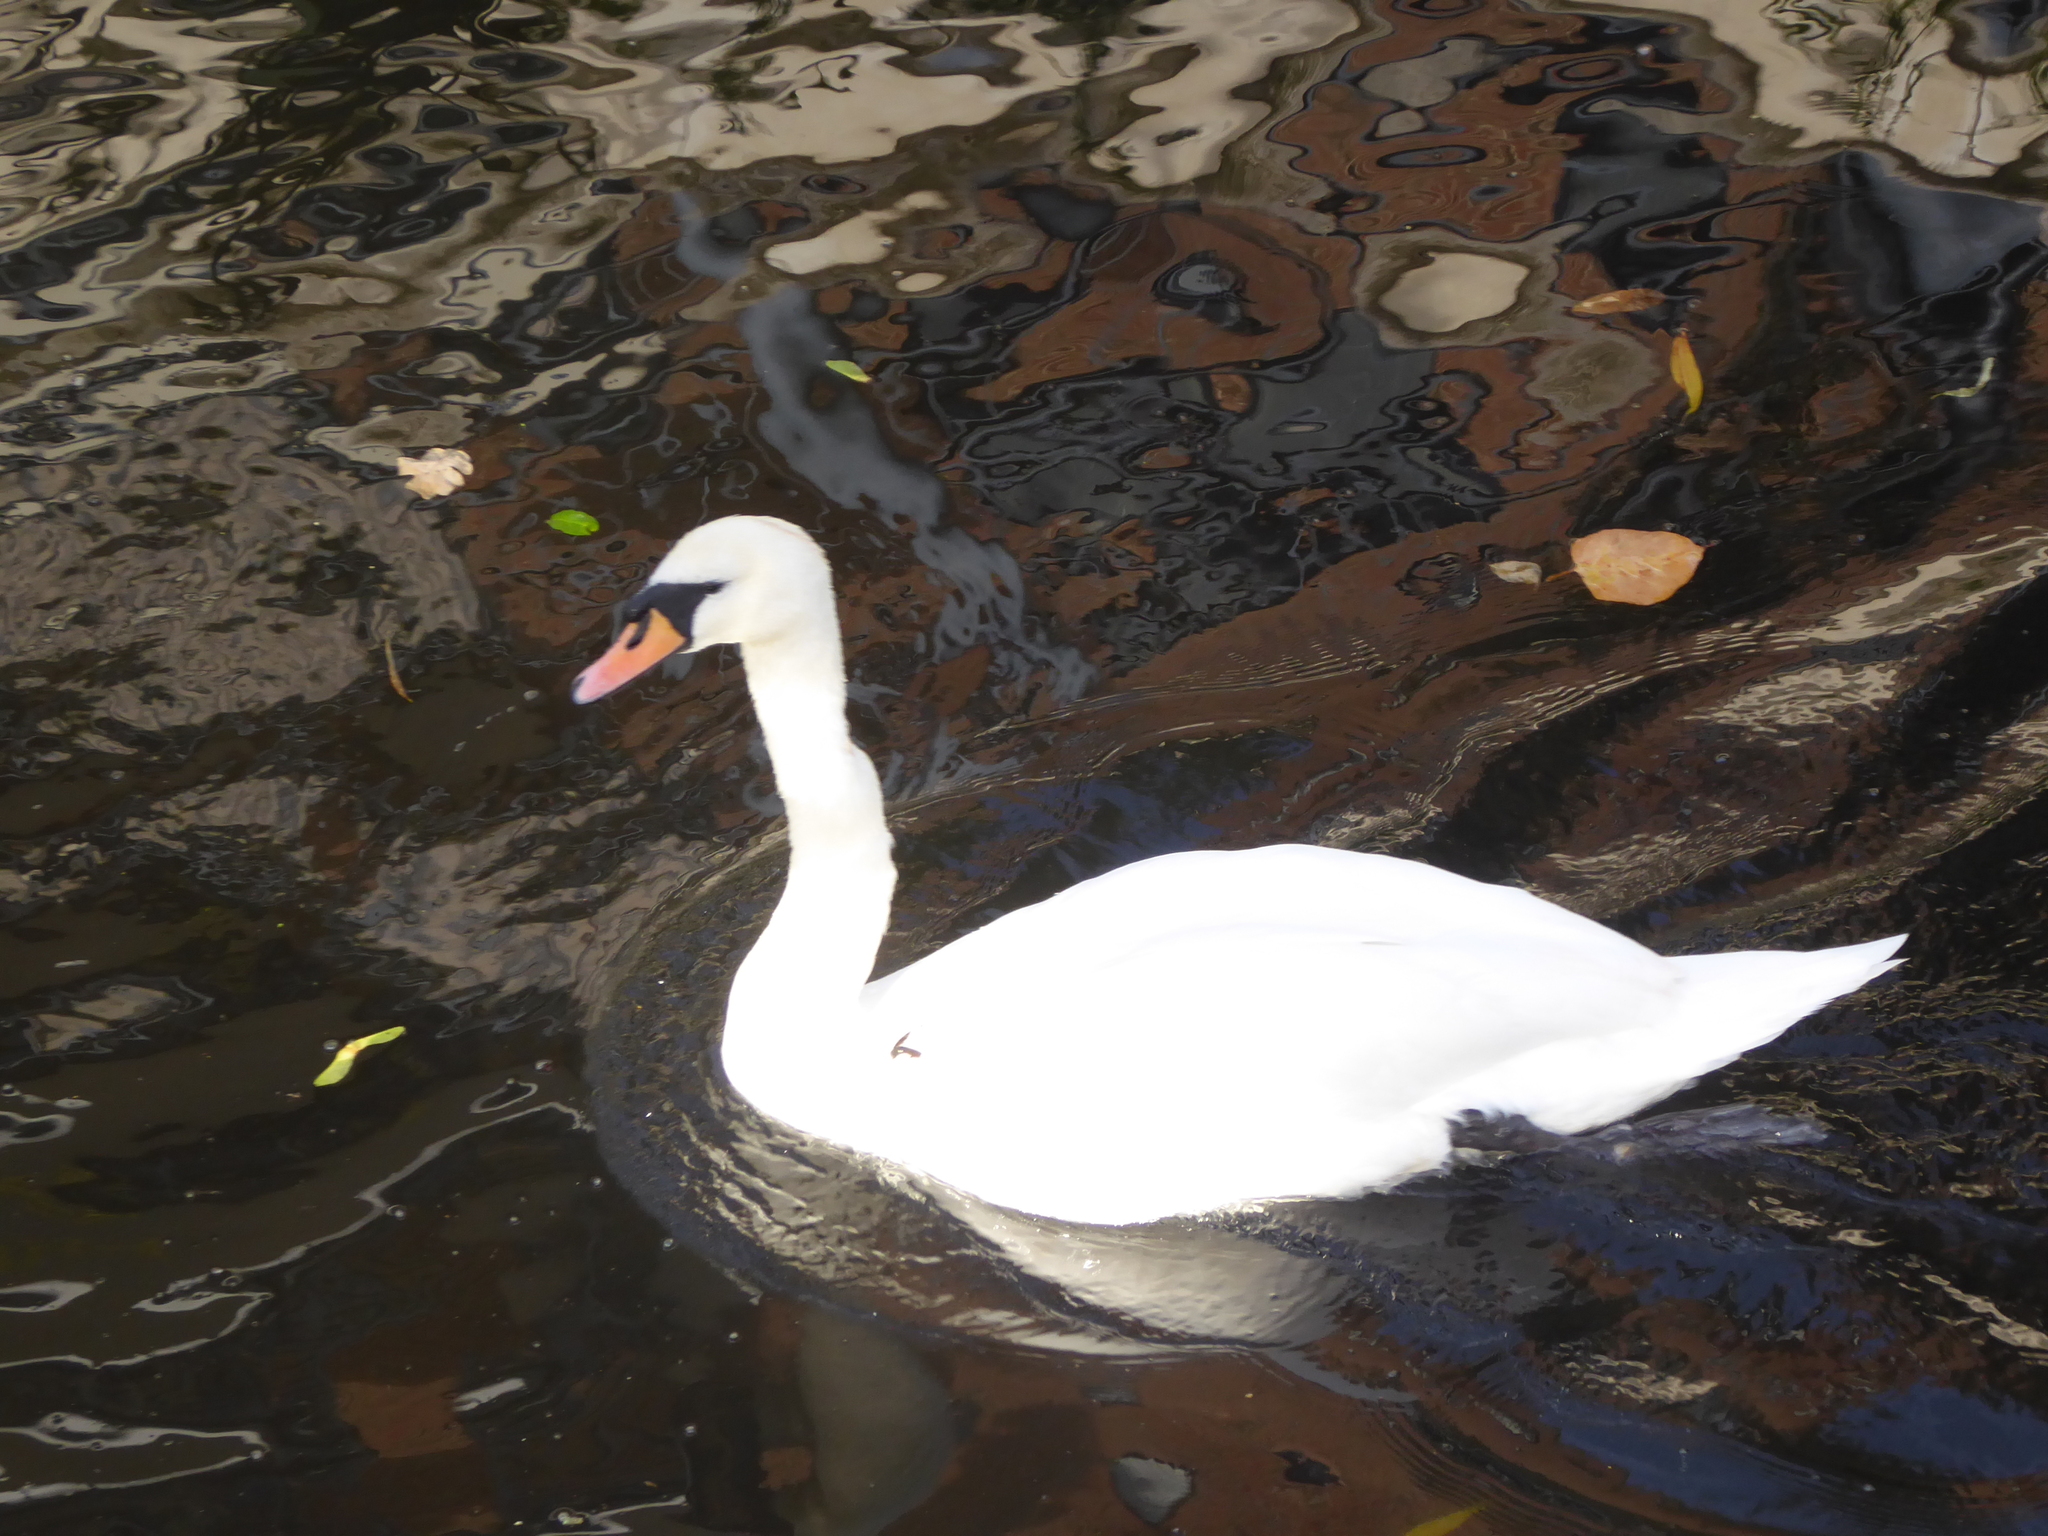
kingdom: Animalia
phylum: Chordata
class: Aves
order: Anseriformes
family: Anatidae
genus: Cygnus
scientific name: Cygnus olor
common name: Mute swan
